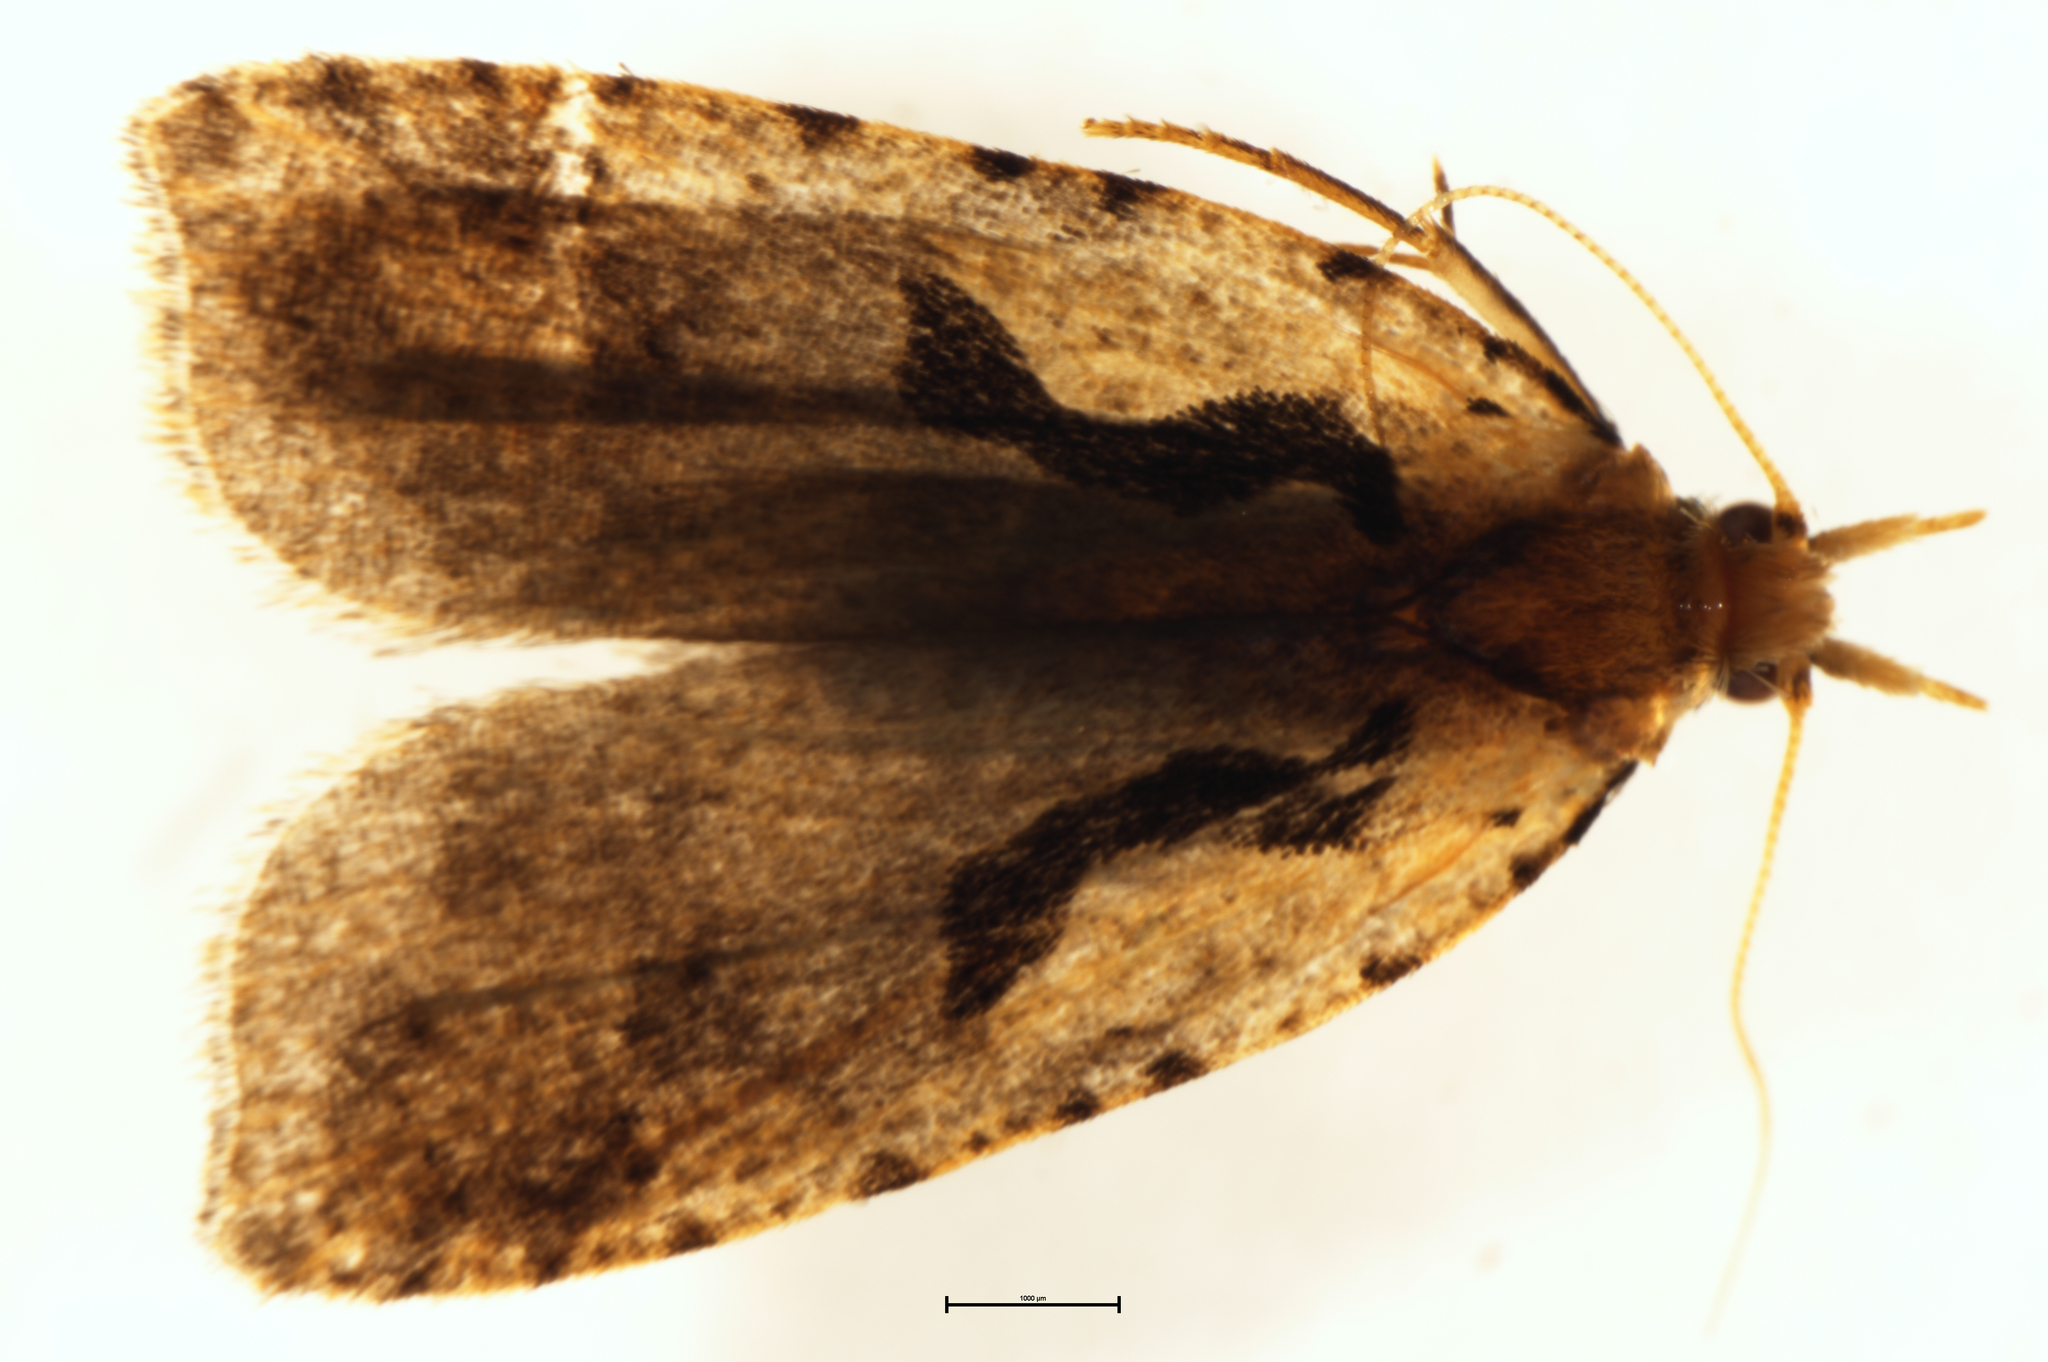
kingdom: Animalia
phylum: Arthropoda
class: Insecta
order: Lepidoptera
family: Tortricidae
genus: Cnephasia
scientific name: Cnephasia jactatana
